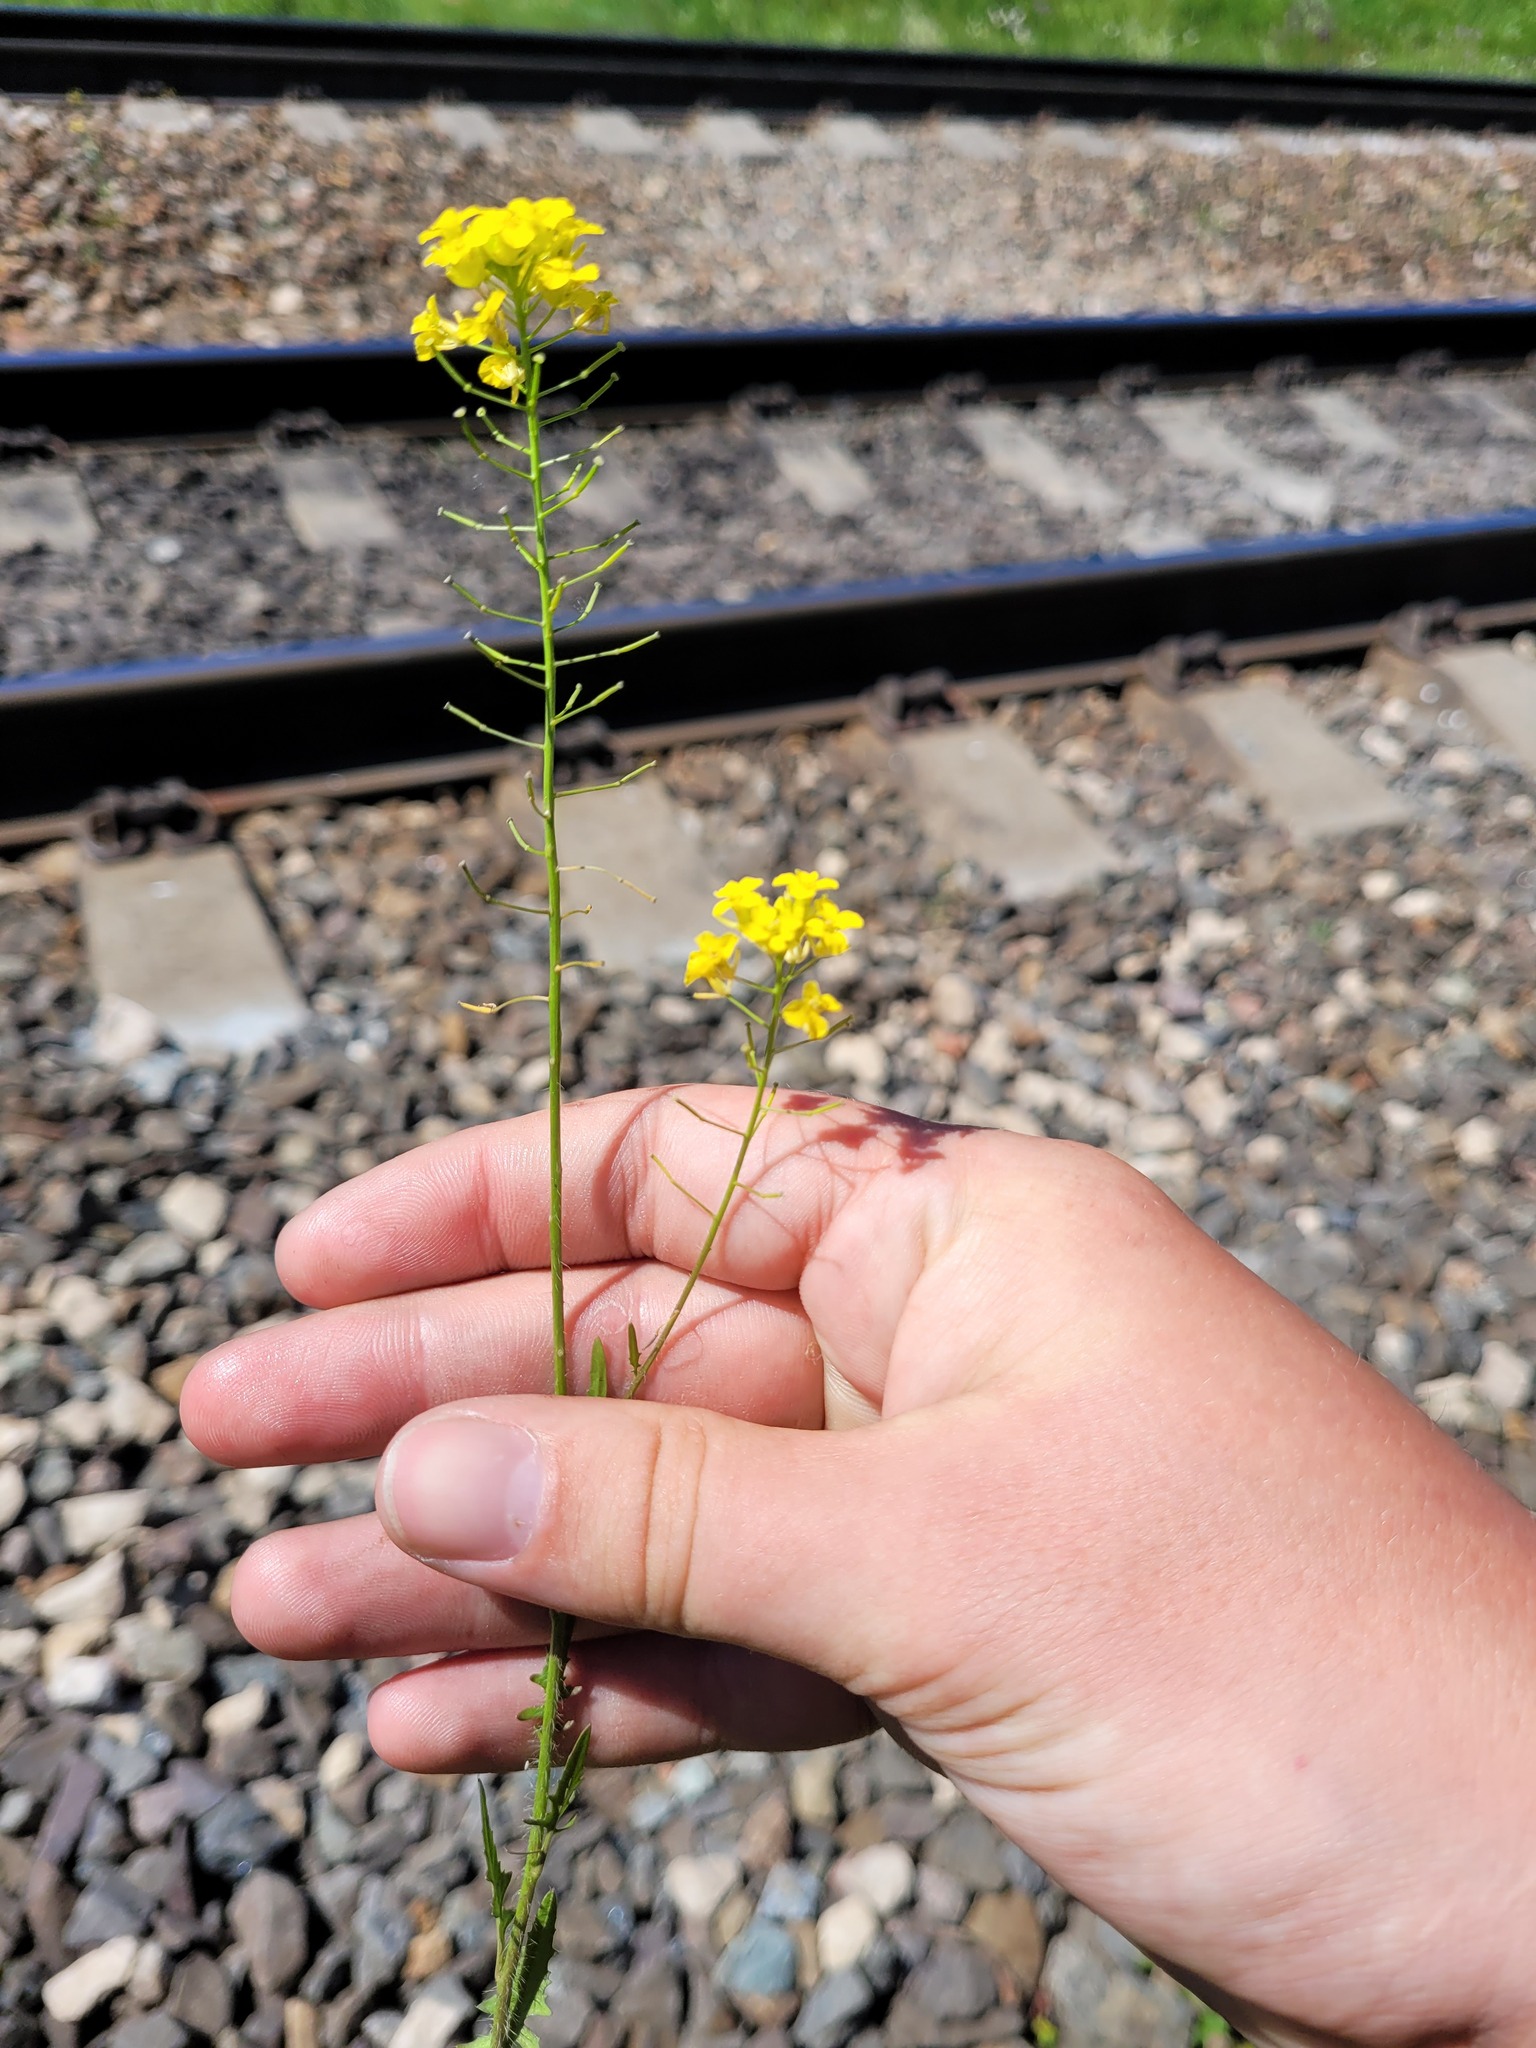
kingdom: Plantae
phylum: Tracheophyta
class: Magnoliopsida
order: Brassicales
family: Brassicaceae
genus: Sisymbrium
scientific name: Sisymbrium loeselii
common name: False london-rocket
